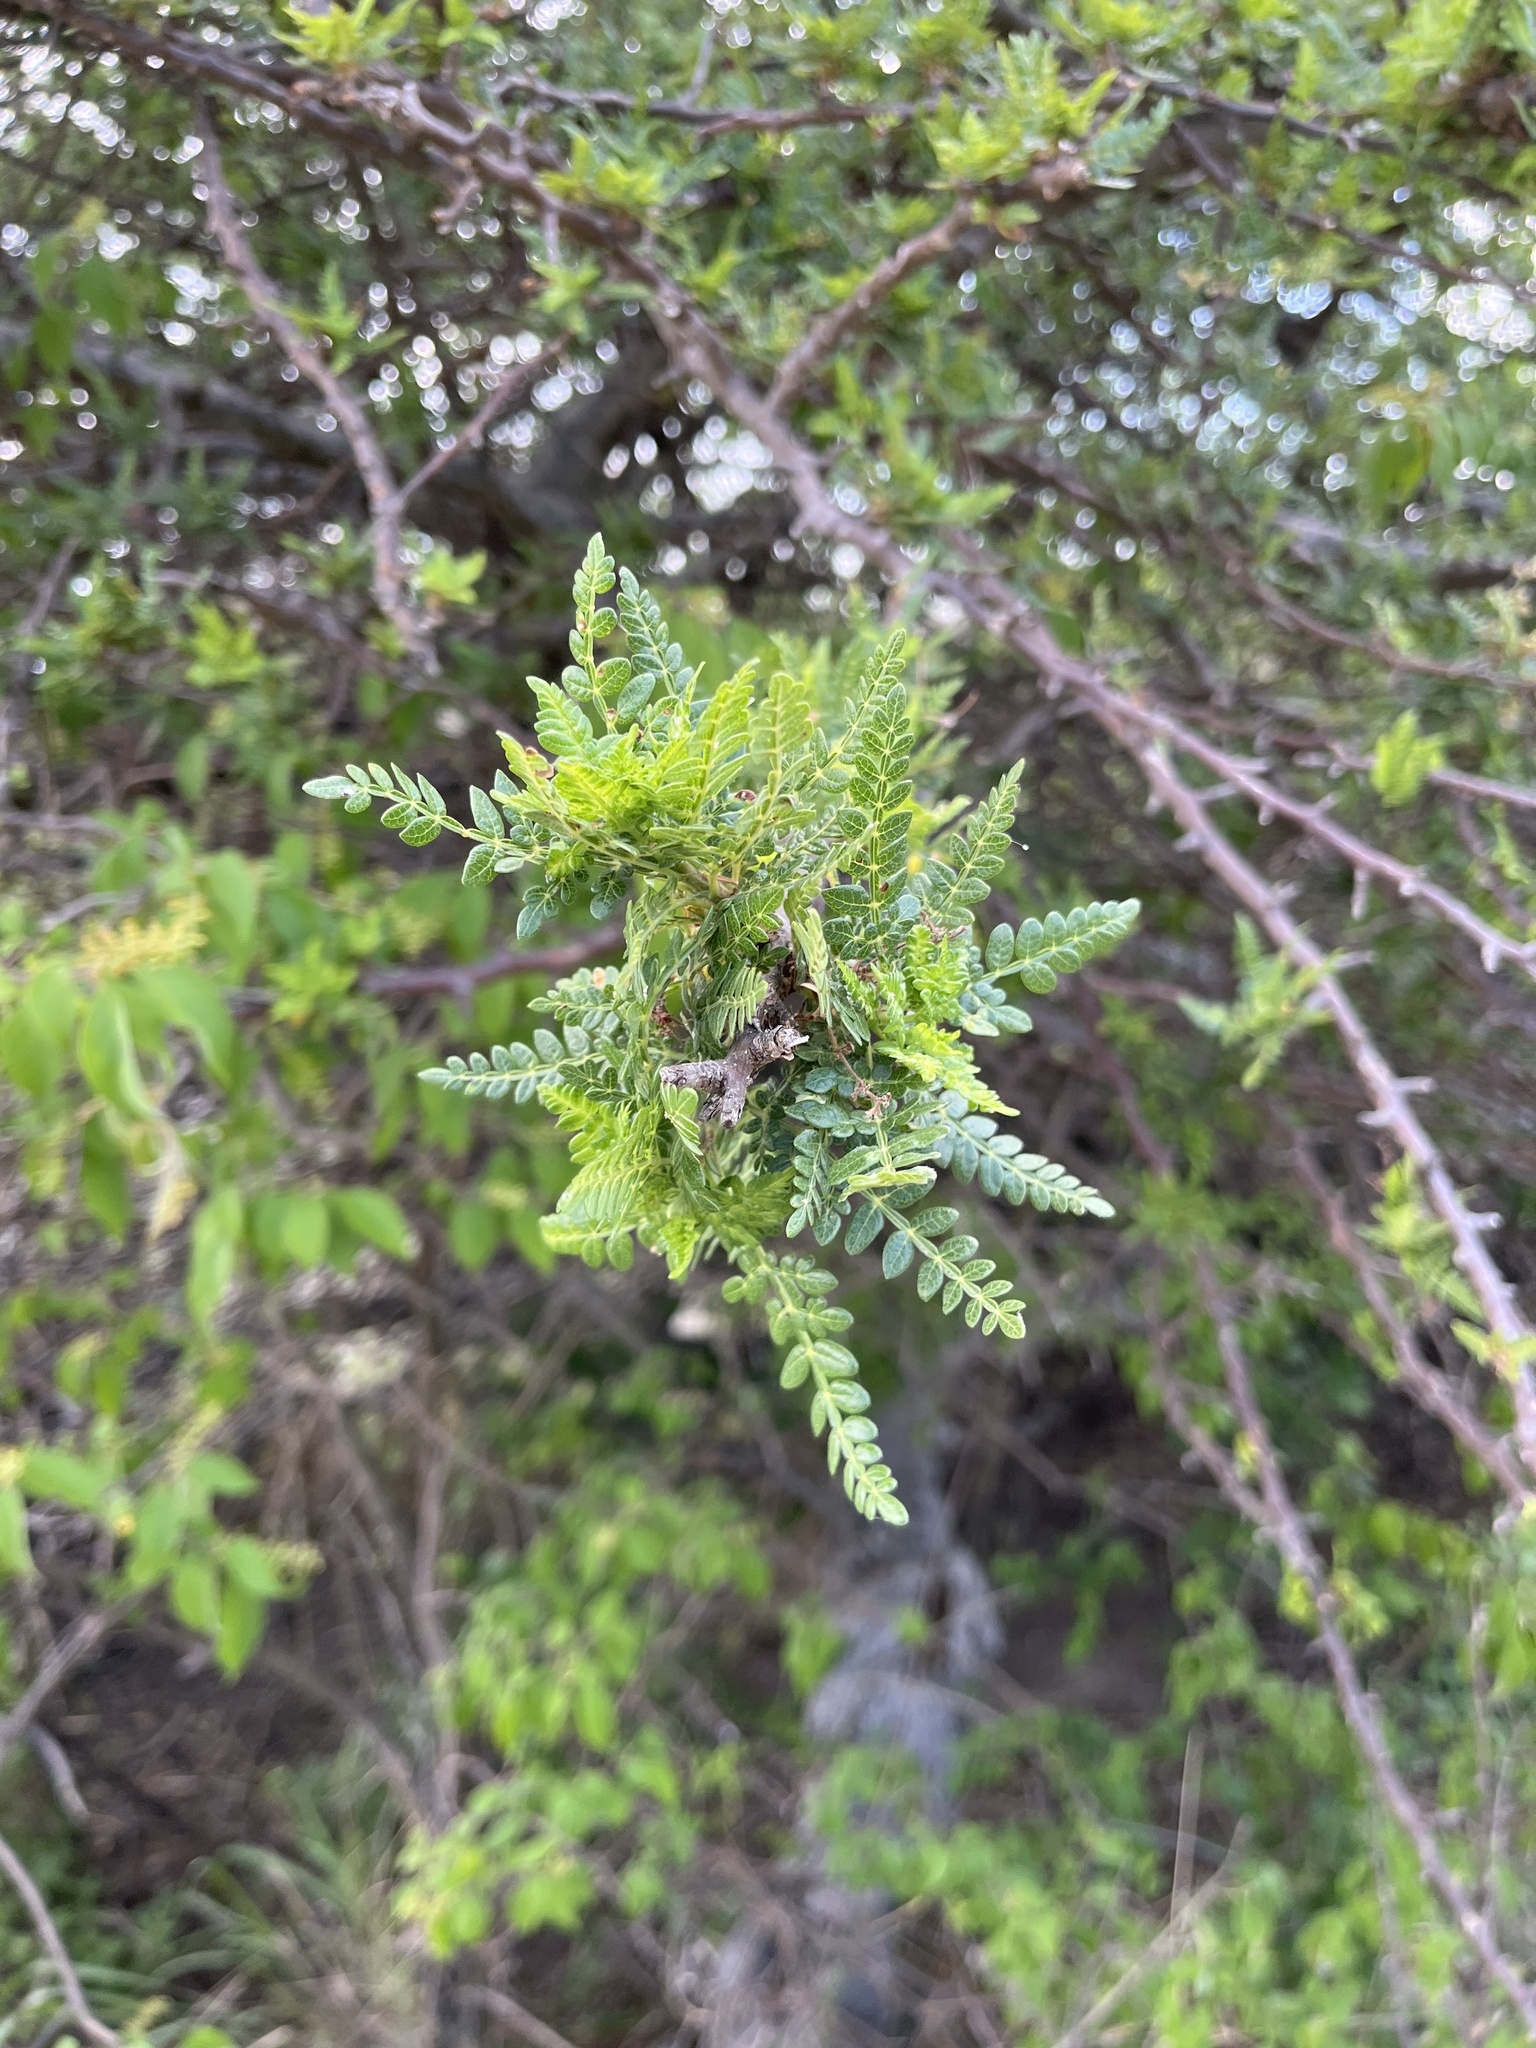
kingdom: Plantae
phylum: Tracheophyta
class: Magnoliopsida
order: Sapindales
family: Burseraceae
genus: Bursera
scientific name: Bursera bipinnata
